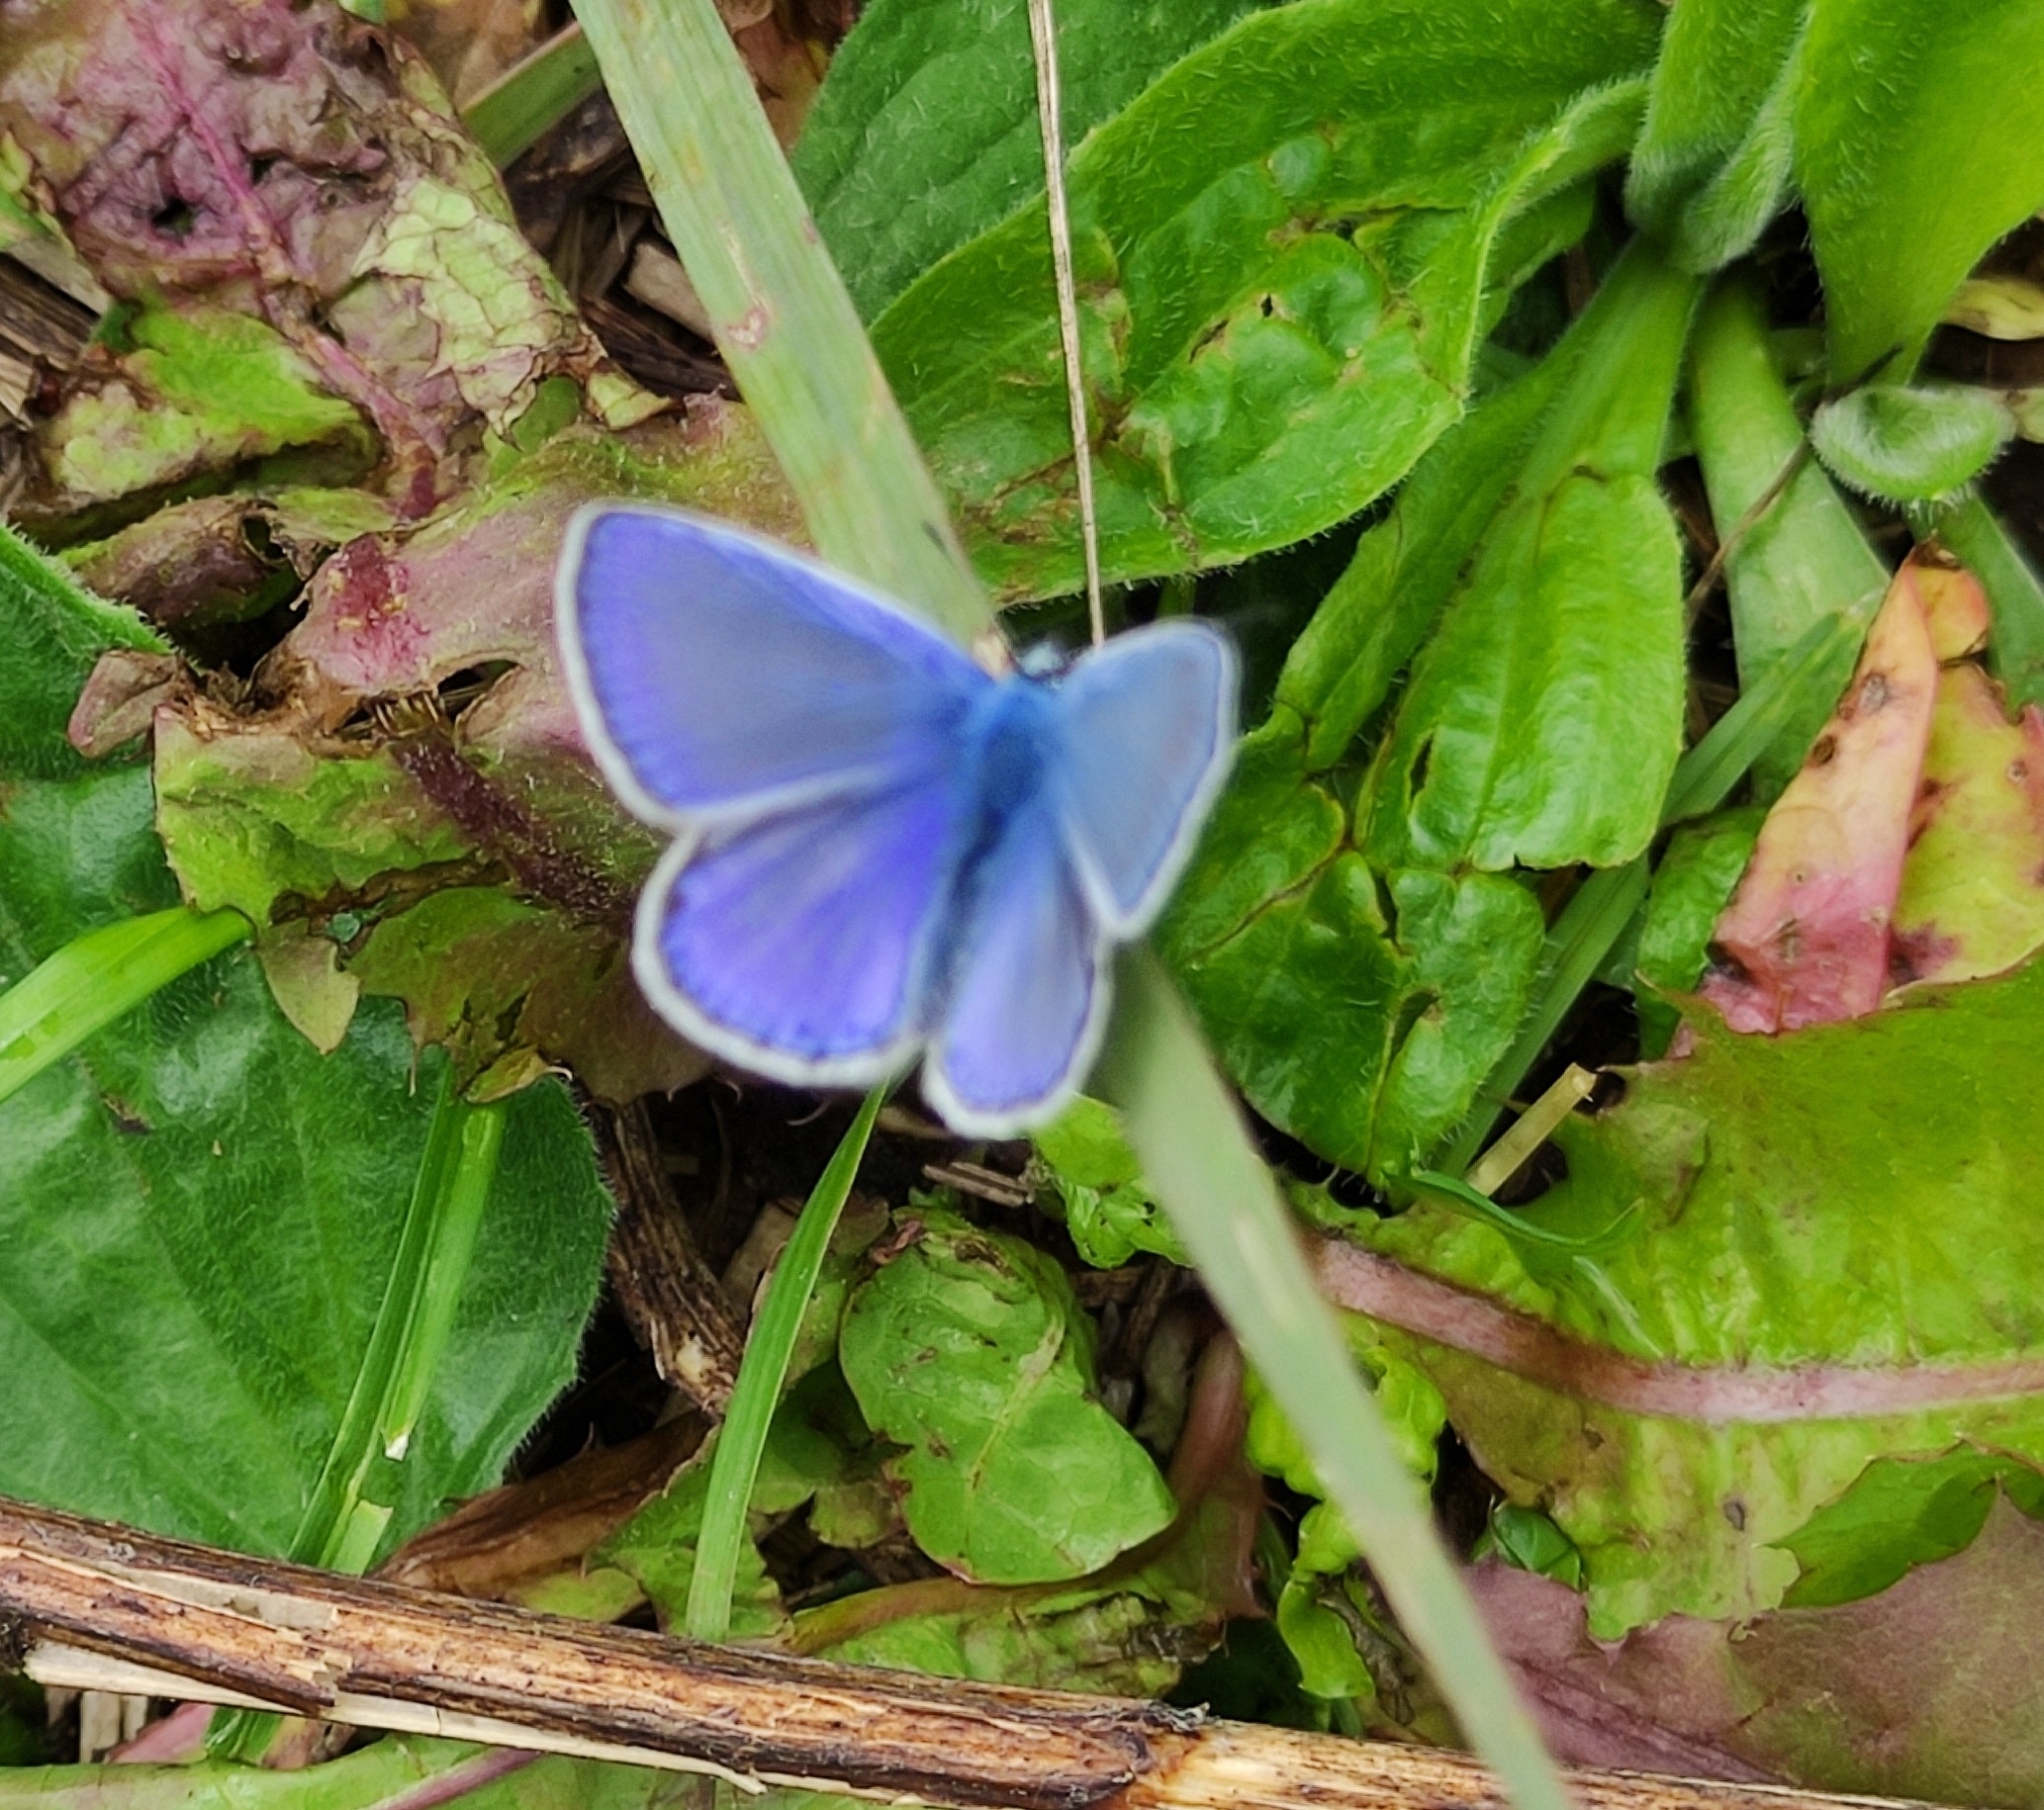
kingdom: Animalia
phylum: Arthropoda
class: Insecta
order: Lepidoptera
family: Lycaenidae
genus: Polyommatus
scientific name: Polyommatus icarus
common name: Common blue
